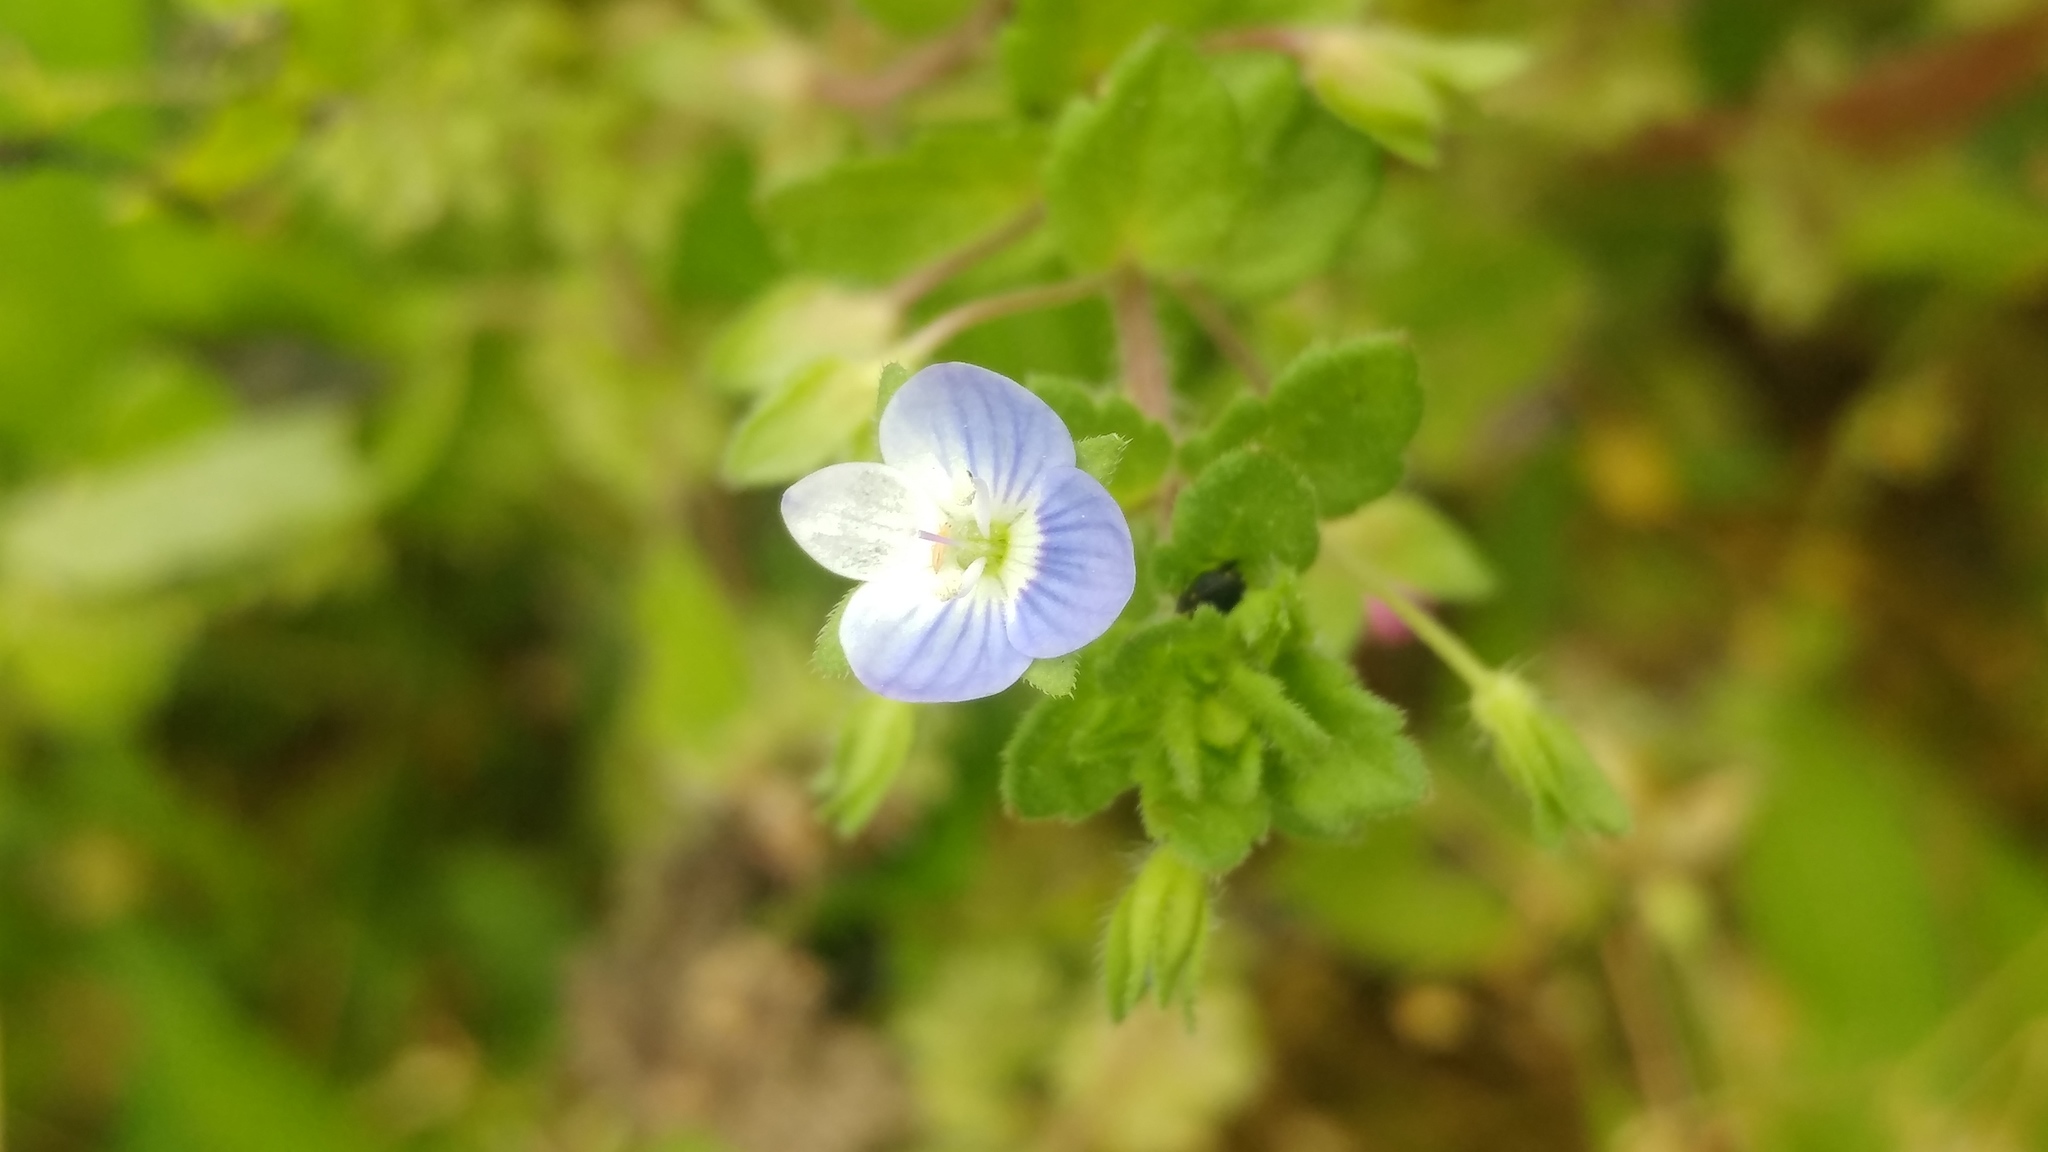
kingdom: Plantae
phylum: Tracheophyta
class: Magnoliopsida
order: Lamiales
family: Plantaginaceae
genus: Veronica
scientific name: Veronica persica
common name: Common field-speedwell
